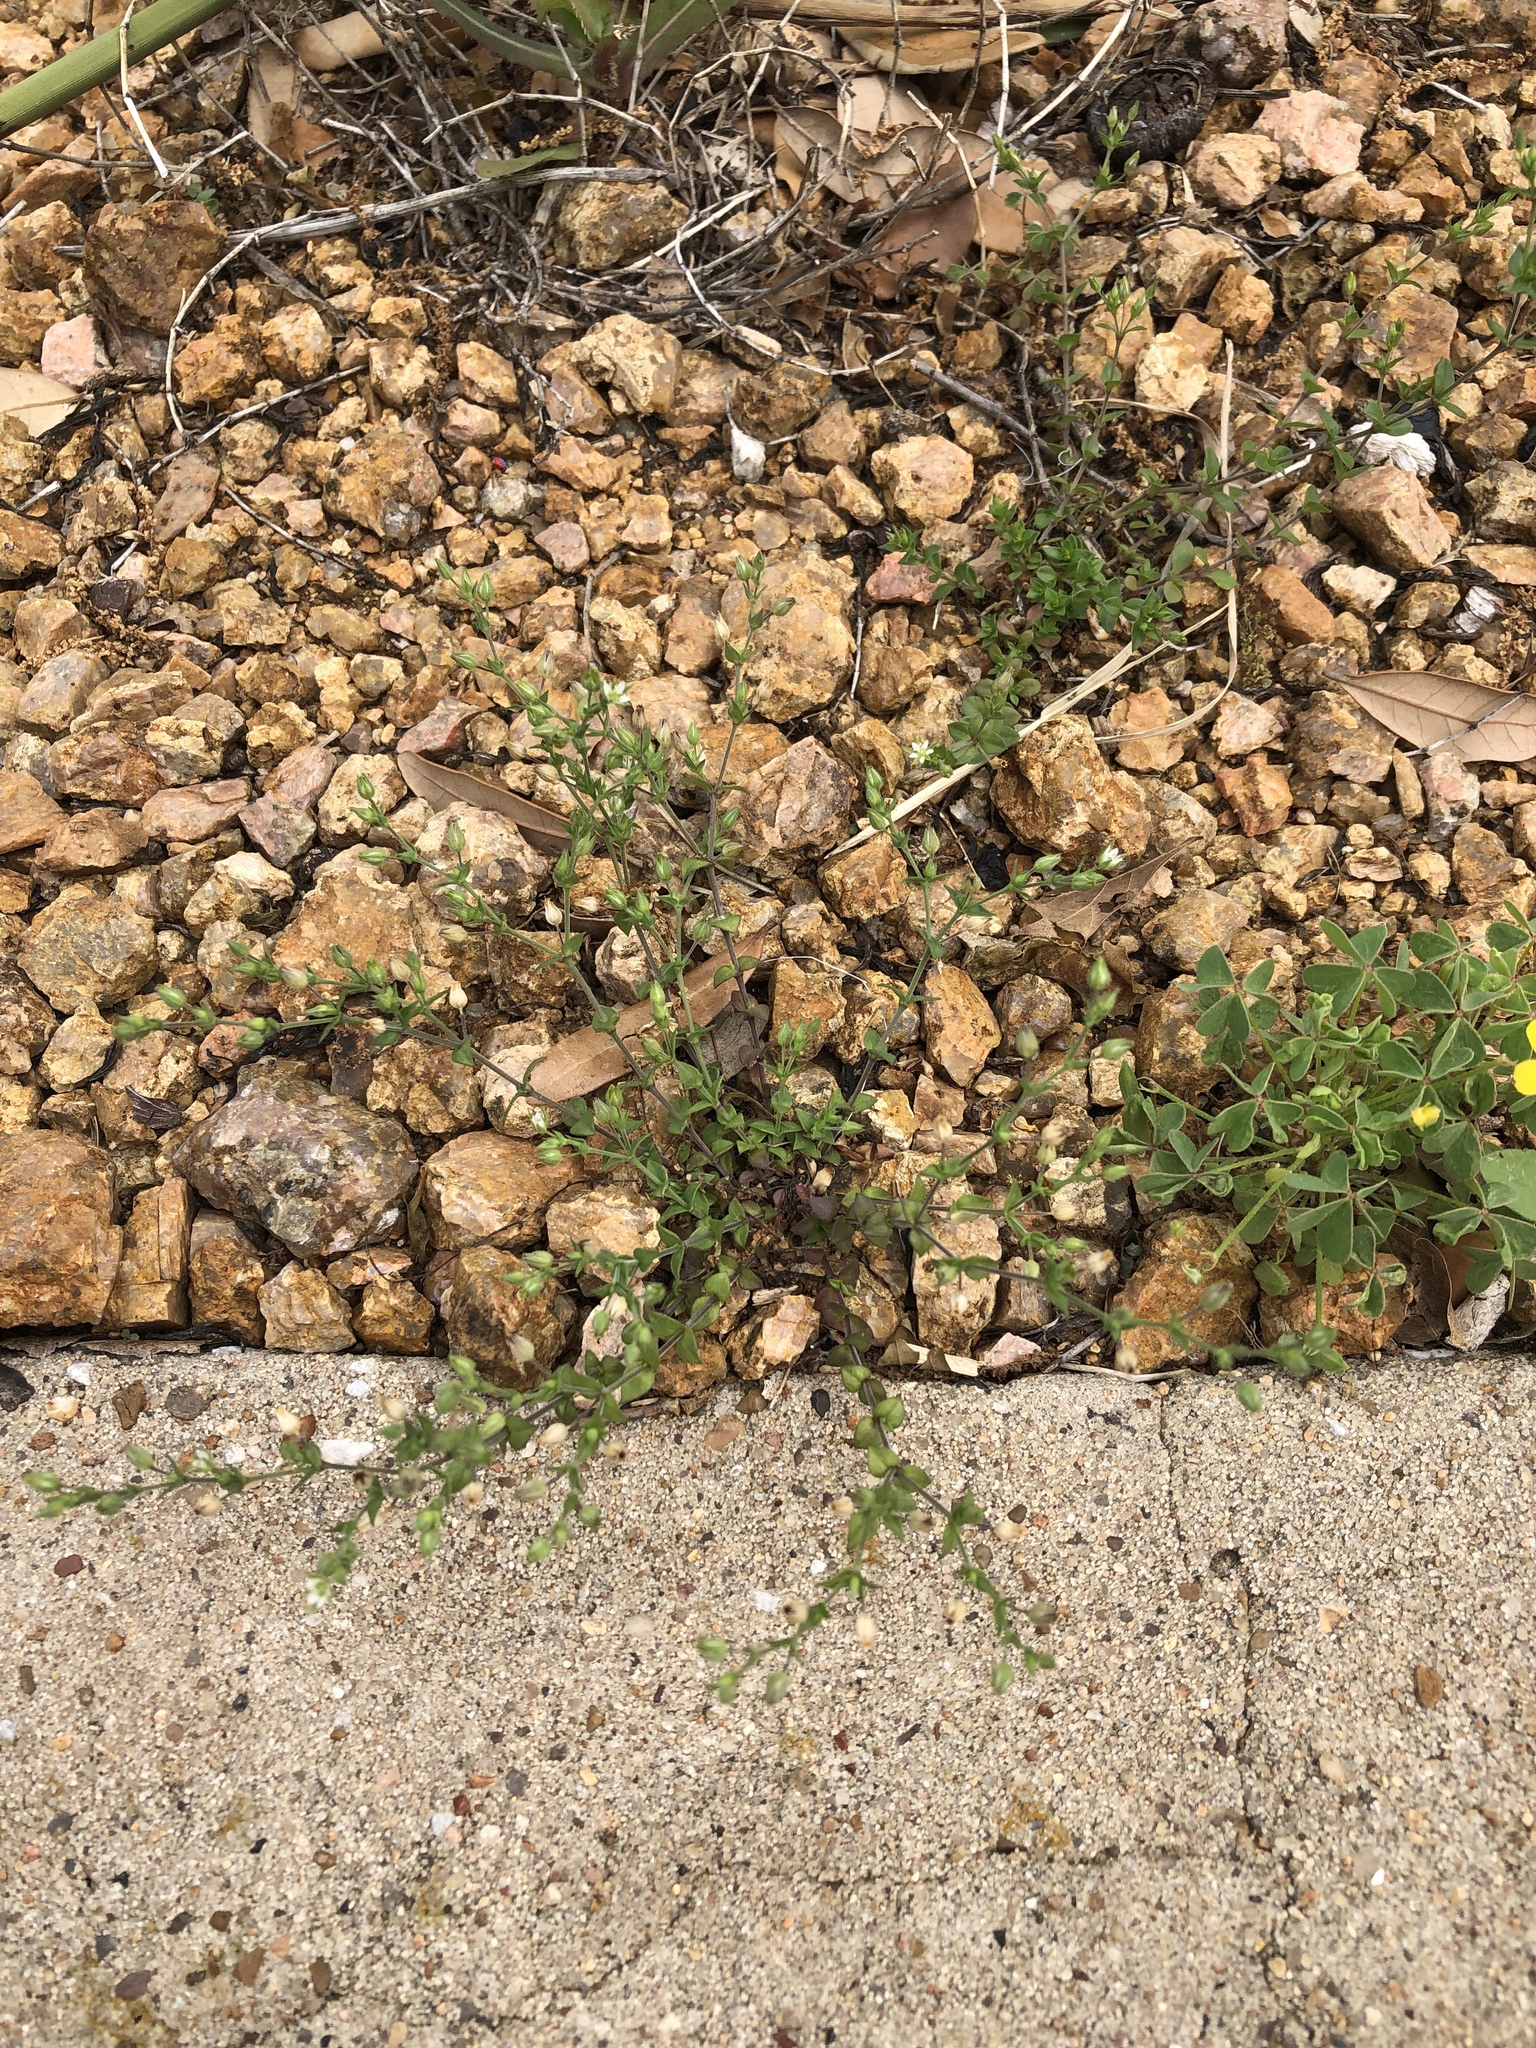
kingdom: Plantae
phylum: Tracheophyta
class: Magnoliopsida
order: Caryophyllales
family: Caryophyllaceae
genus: Arenaria
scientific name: Arenaria serpyllifolia
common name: Thyme-leaved sandwort
